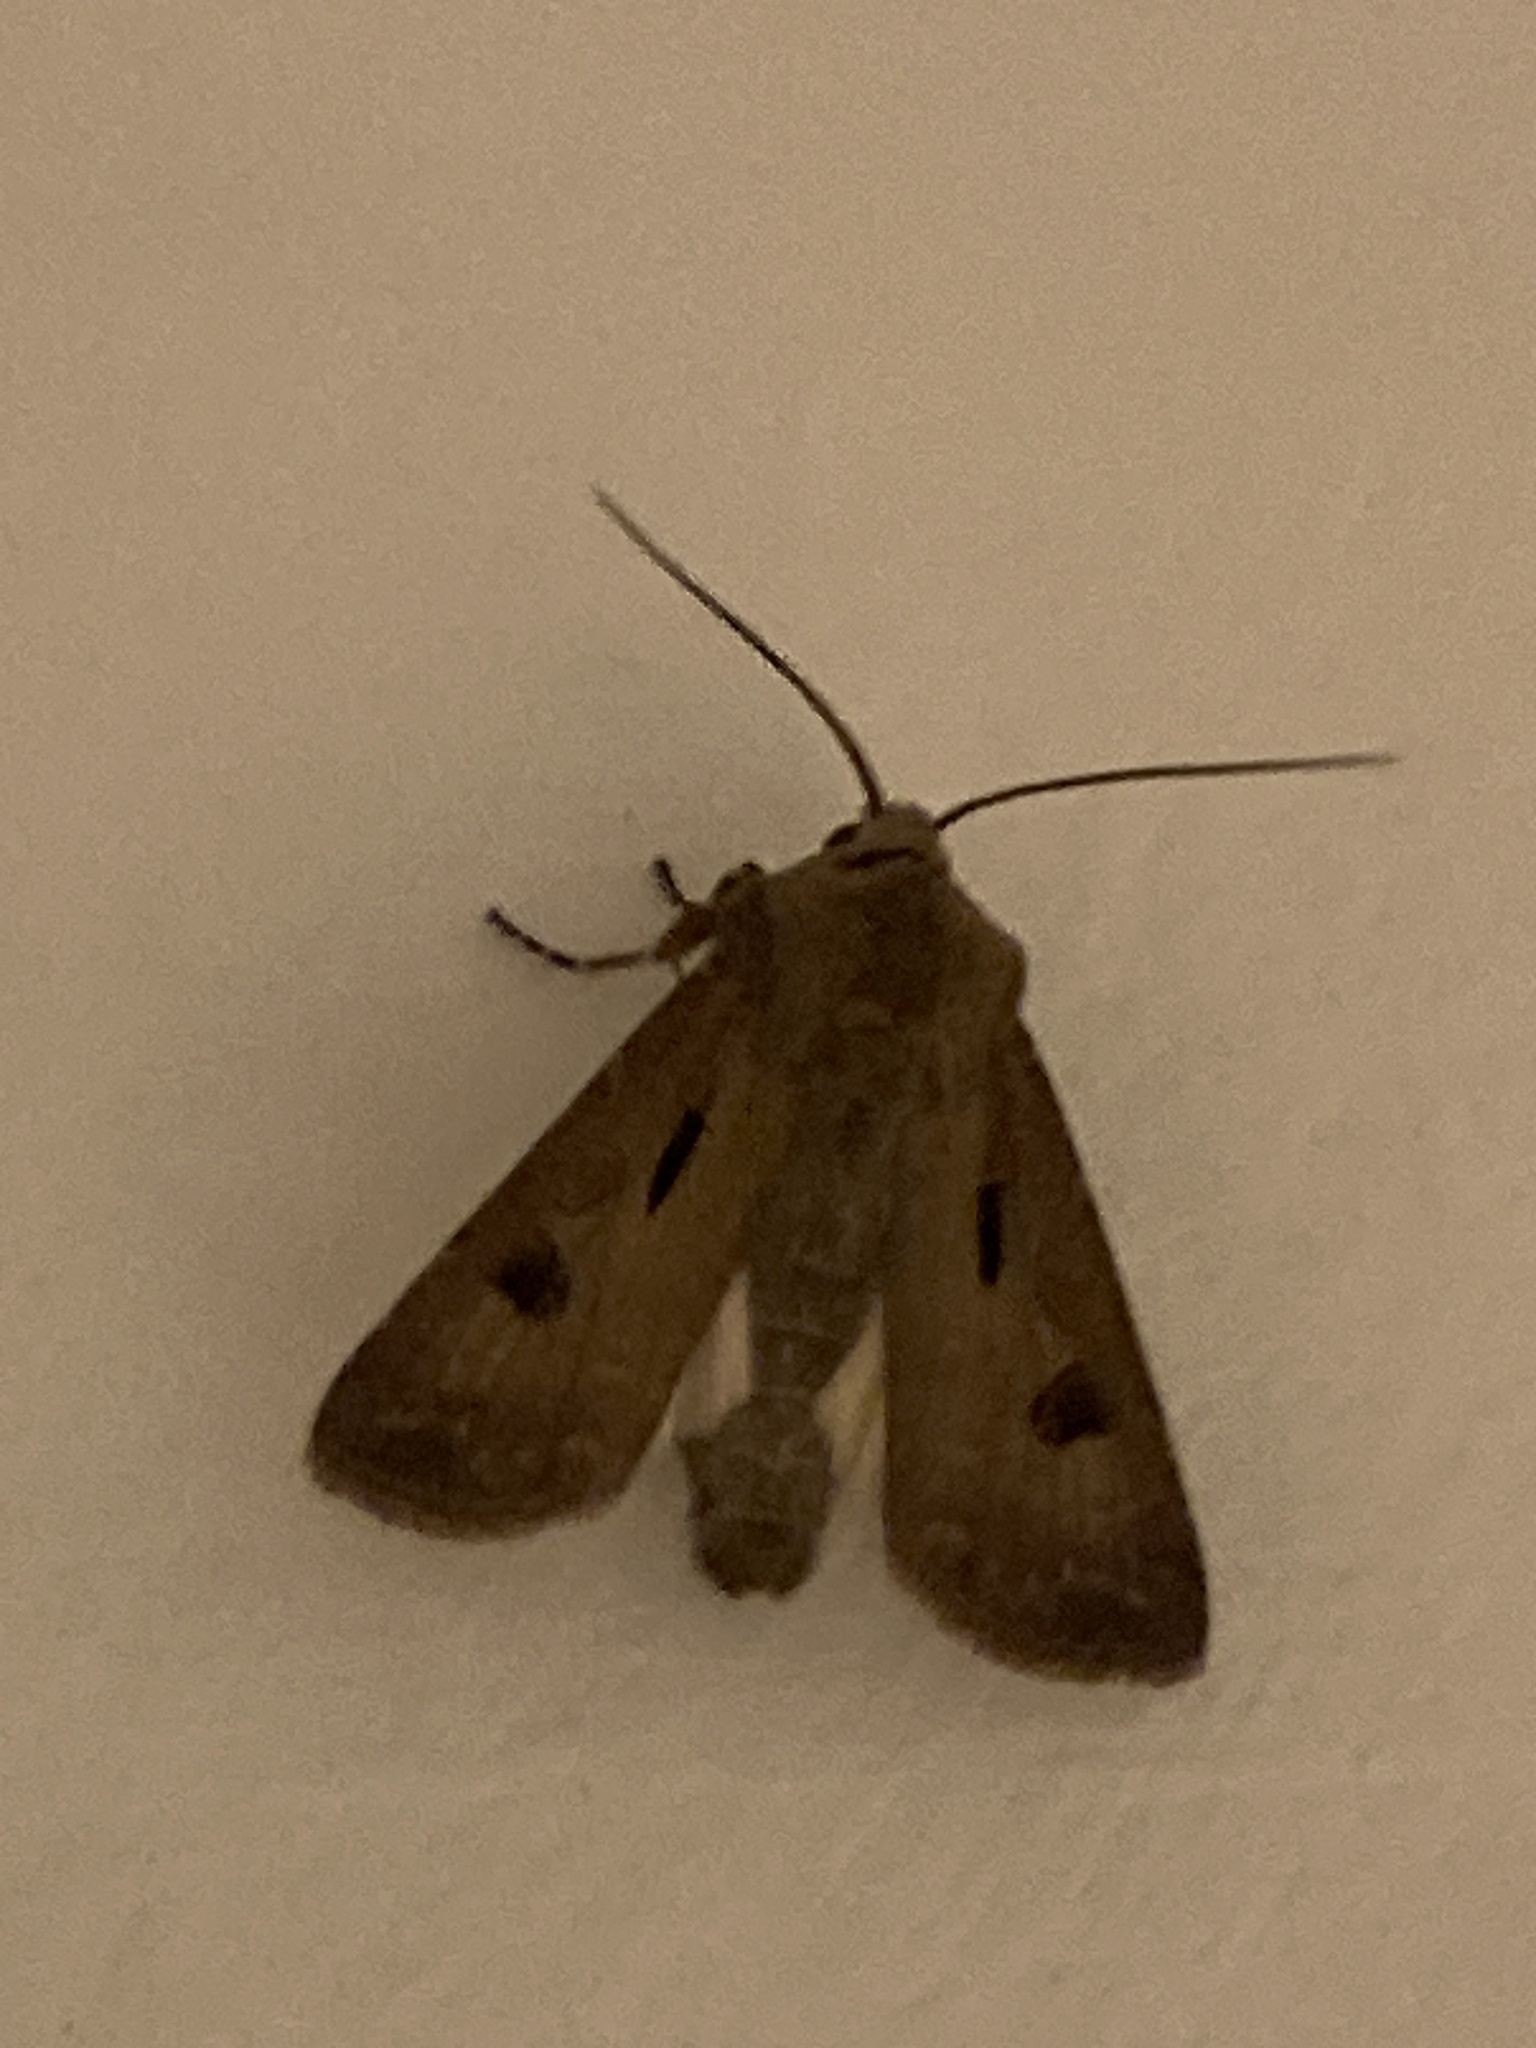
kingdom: Animalia
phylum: Arthropoda
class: Insecta
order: Lepidoptera
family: Noctuidae
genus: Agrotis
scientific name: Agrotis exclamationis
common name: Heart and dart
